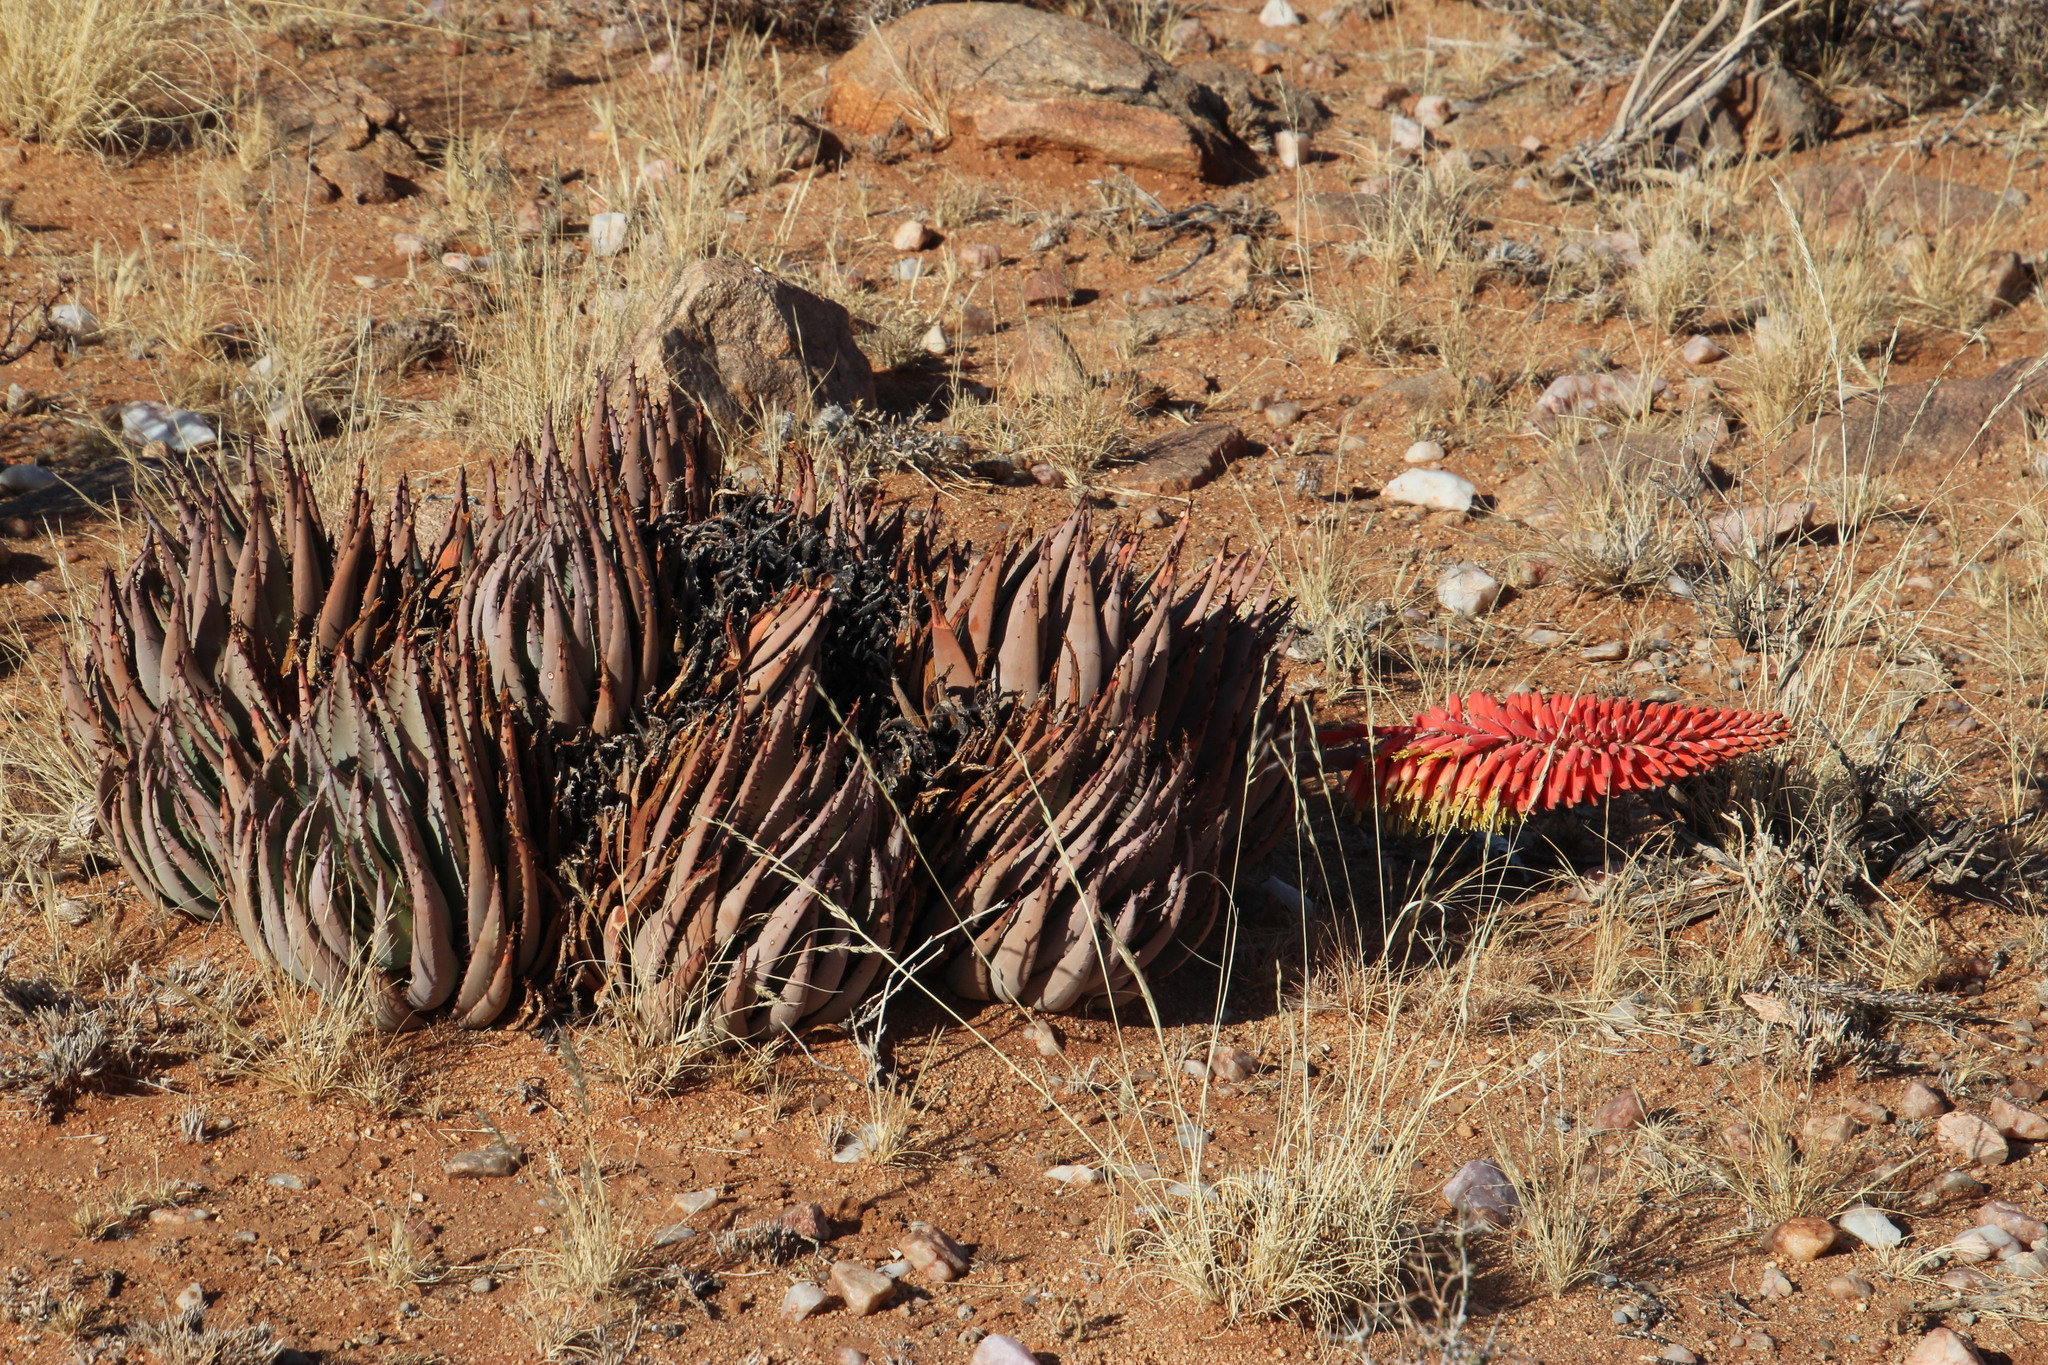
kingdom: Plantae
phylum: Tracheophyta
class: Liliopsida
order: Asparagales
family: Asphodelaceae
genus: Aloe
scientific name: Aloe claviflora
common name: Cannon aloe
